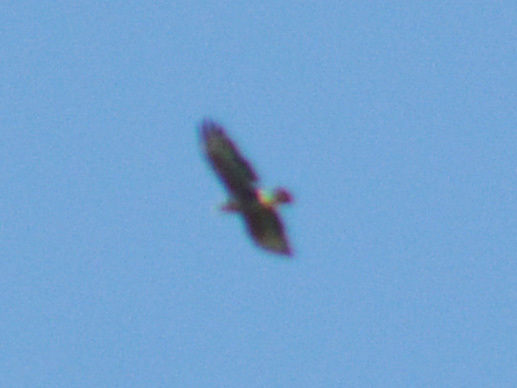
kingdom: Animalia
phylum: Chordata
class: Aves
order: Accipitriformes
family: Accipitridae
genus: Buteo
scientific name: Buteo buteo
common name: Common buzzard
